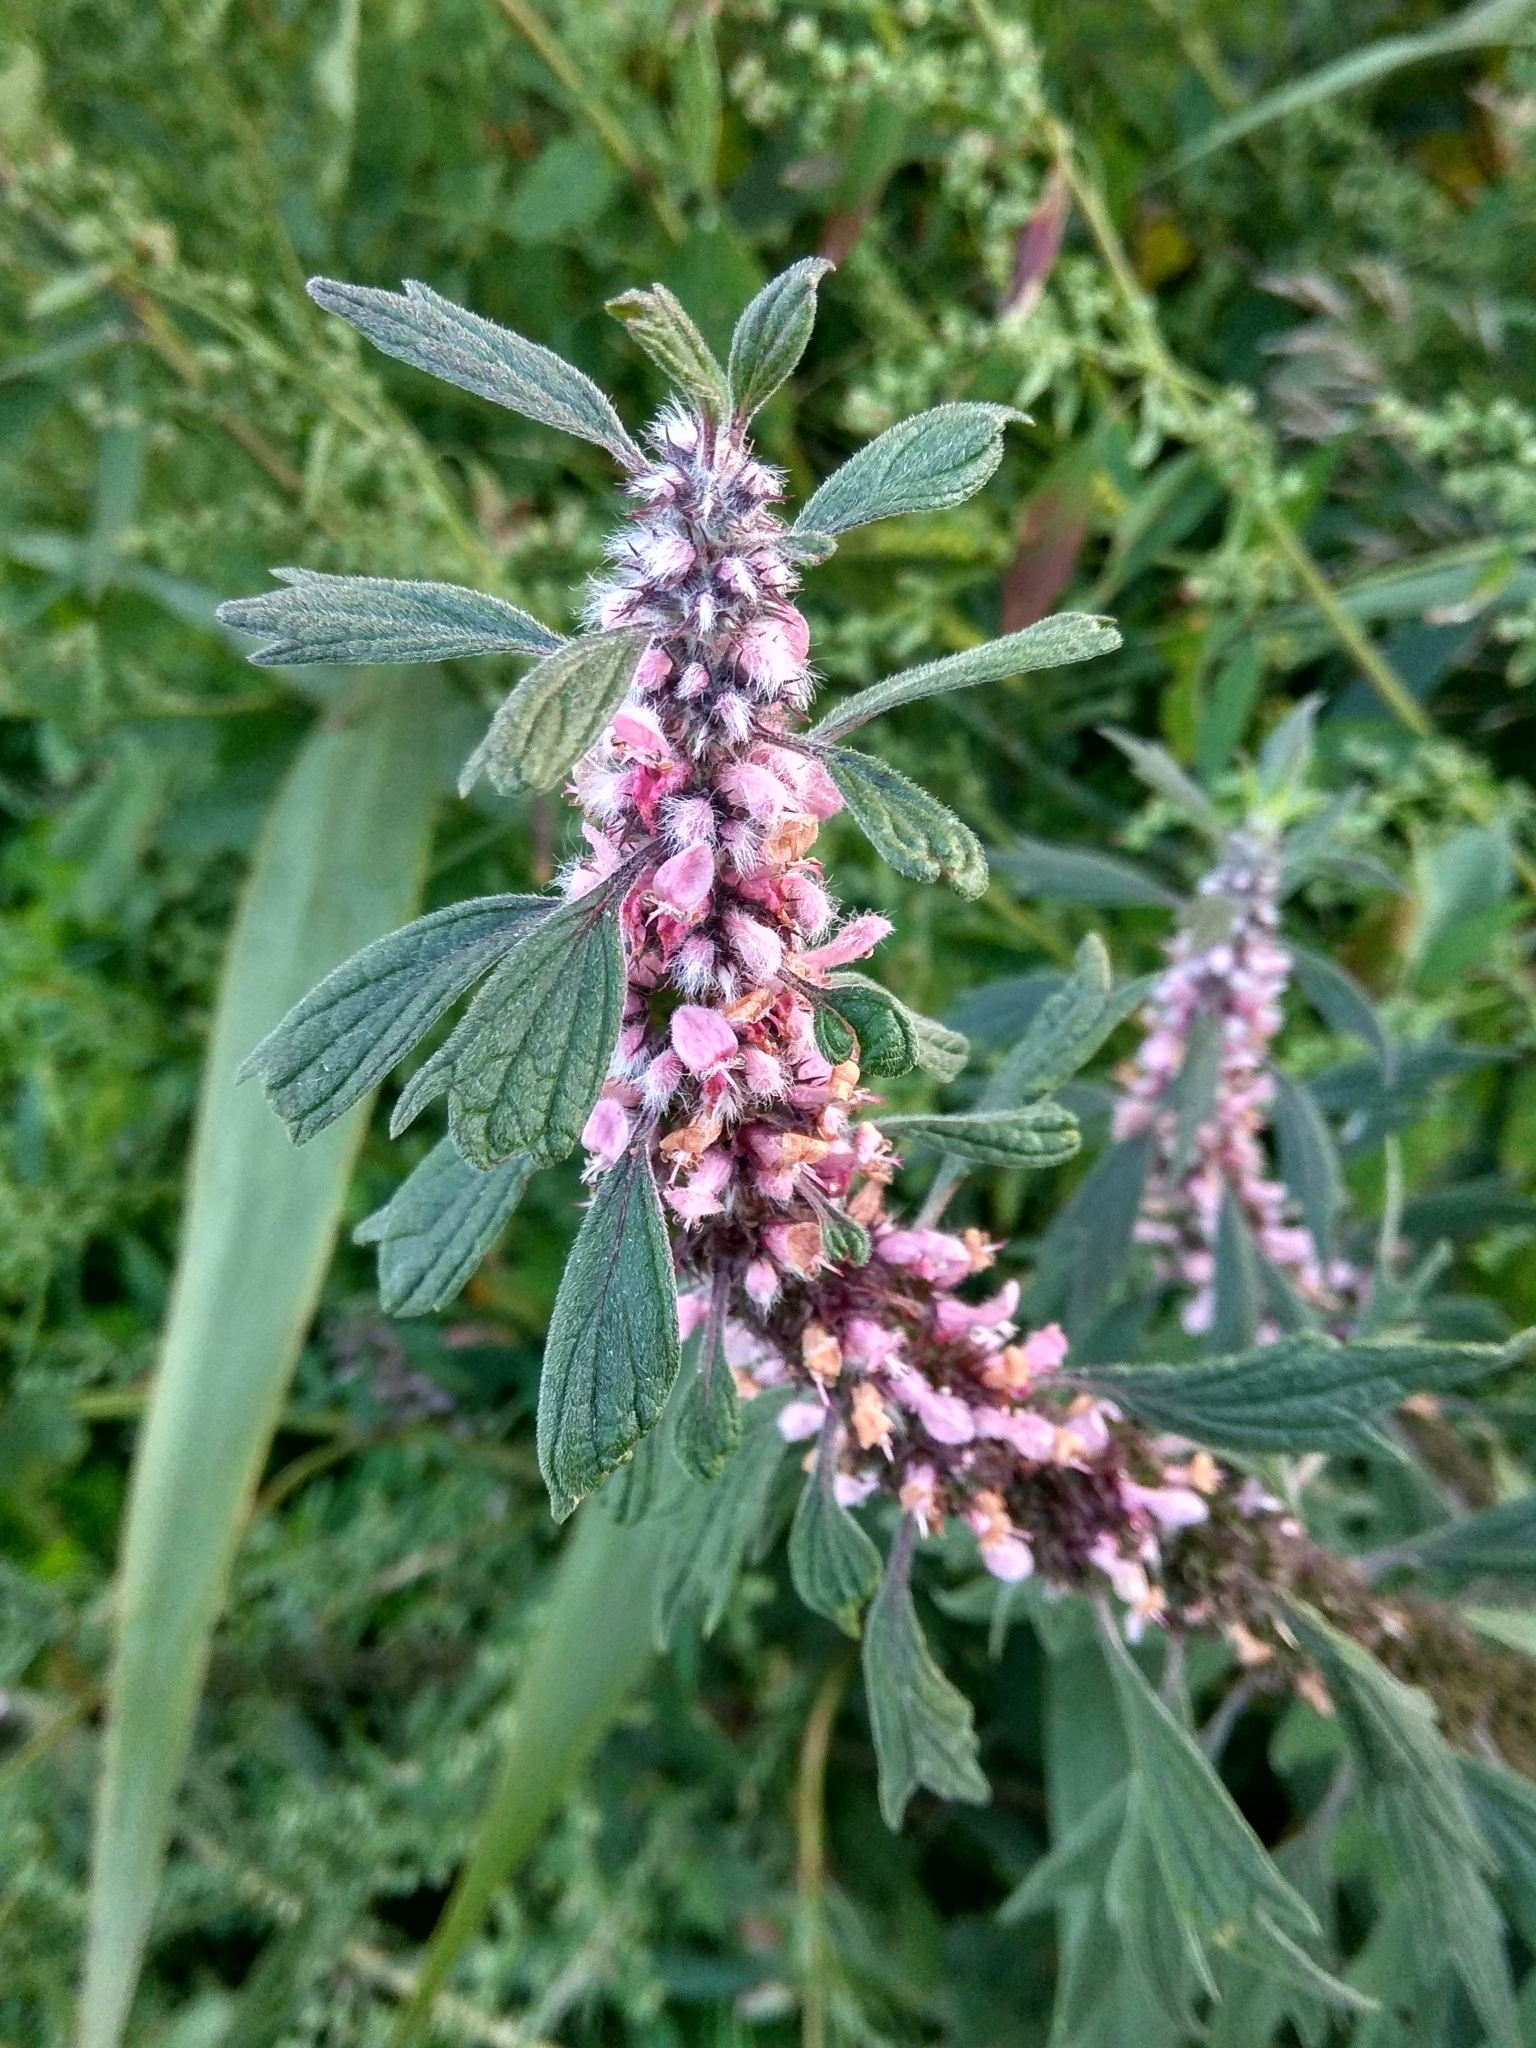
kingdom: Plantae
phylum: Tracheophyta
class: Magnoliopsida
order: Lamiales
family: Lamiaceae
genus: Leonurus
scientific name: Leonurus quinquelobatus
